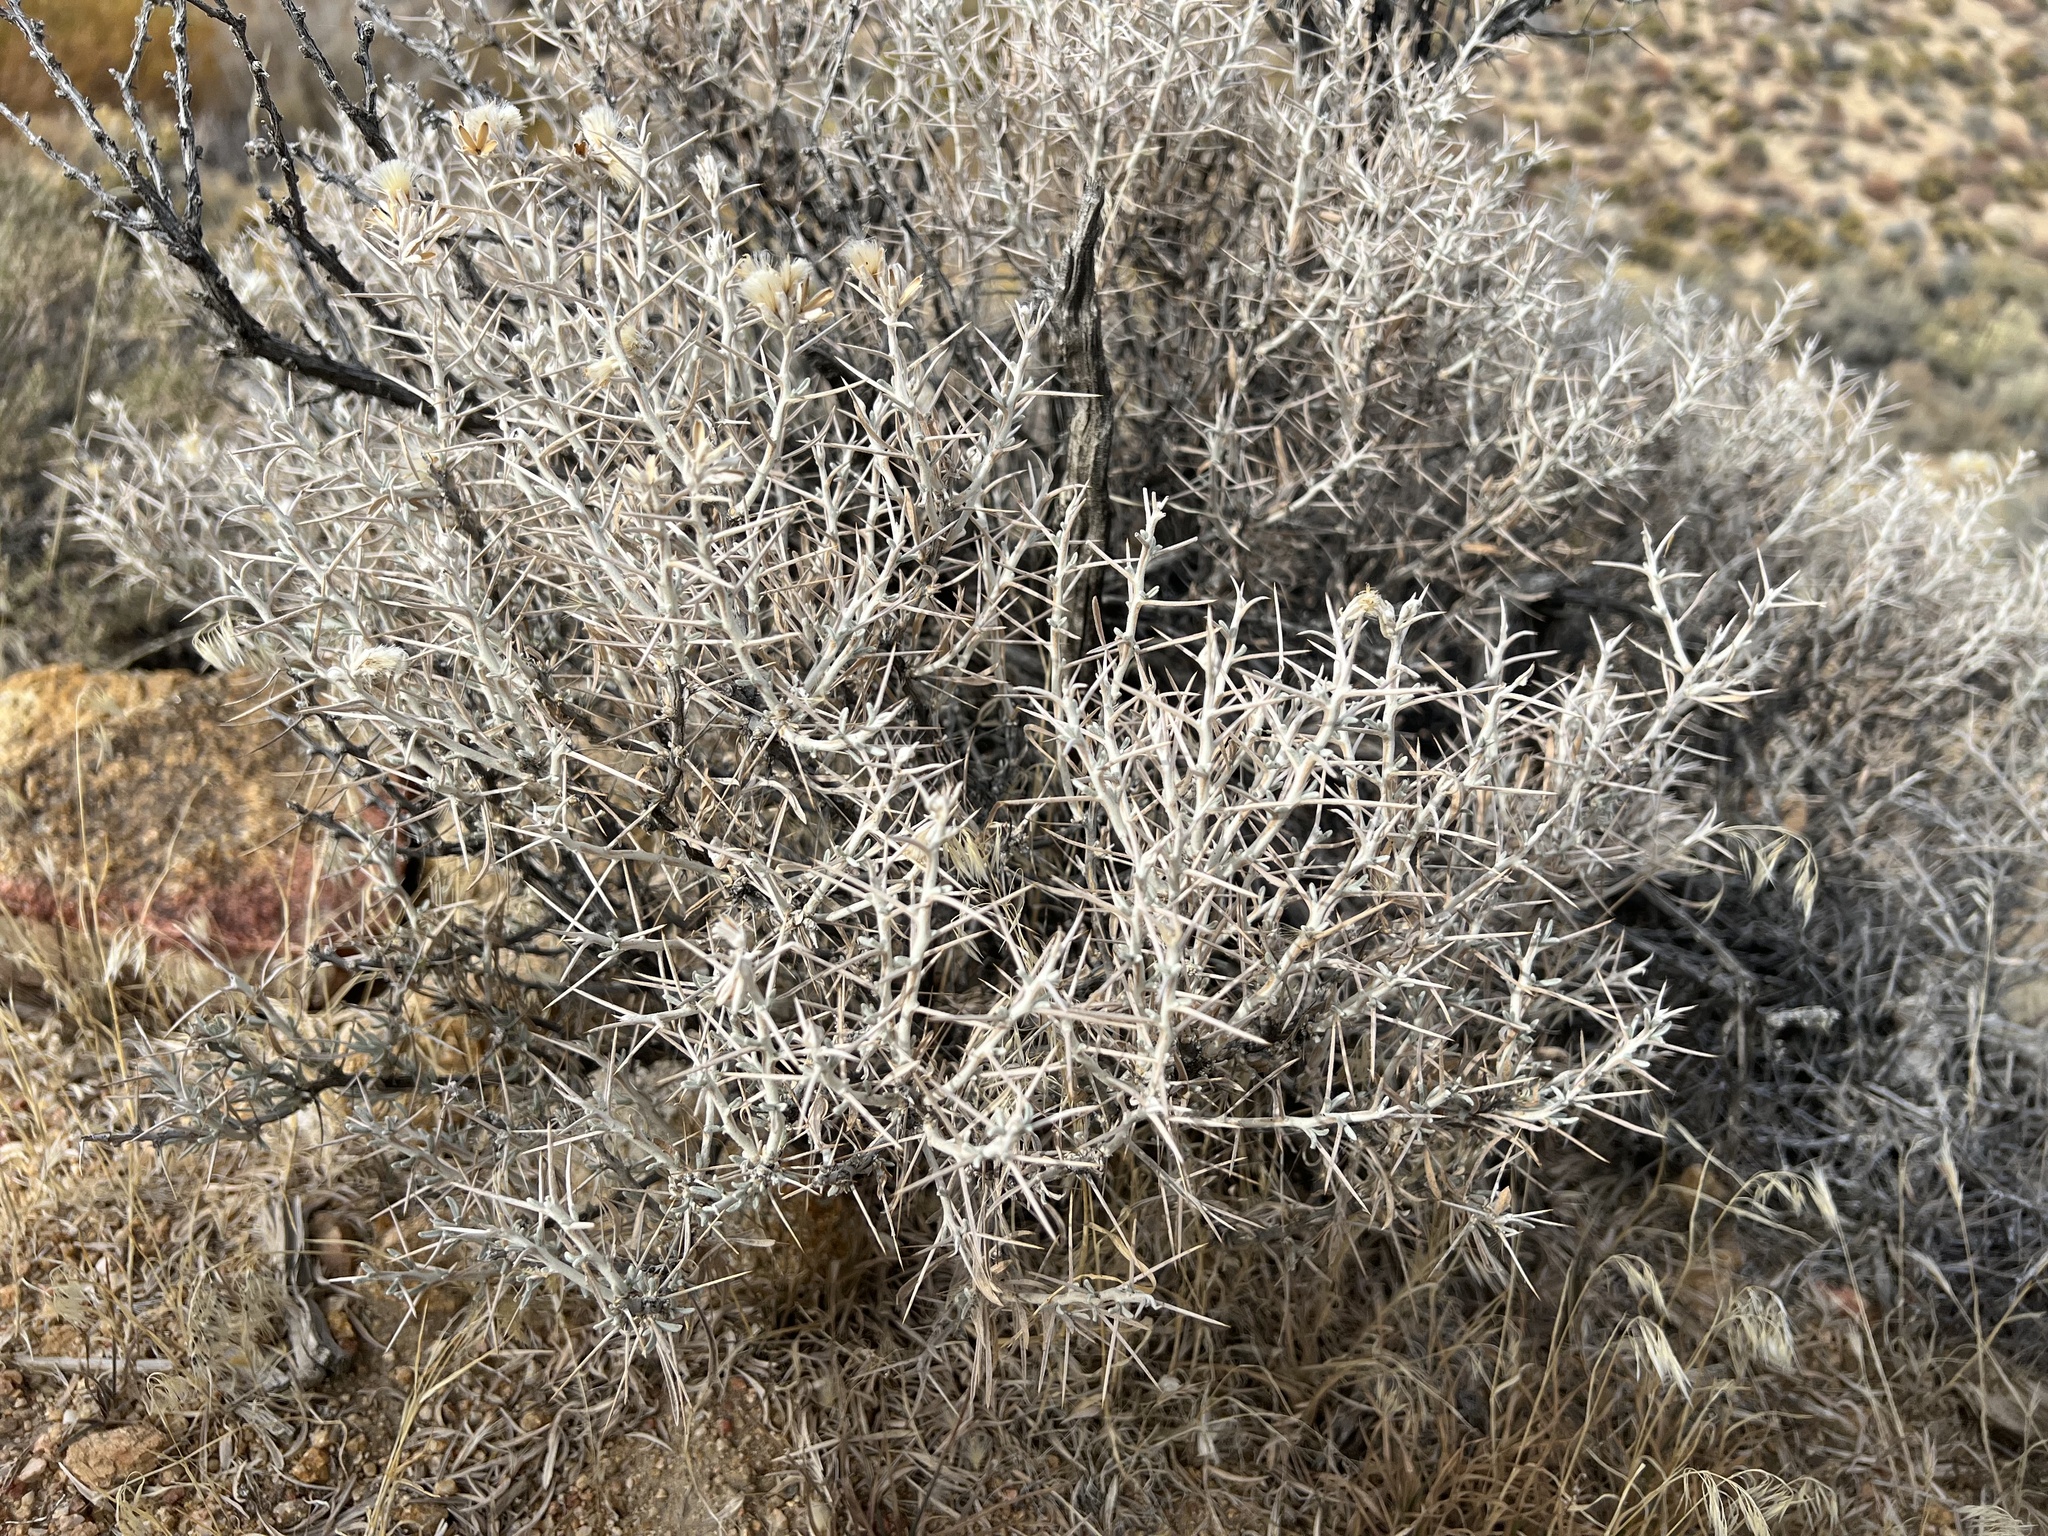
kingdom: Plantae
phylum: Tracheophyta
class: Magnoliopsida
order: Asterales
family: Asteraceae
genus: Tetradymia
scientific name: Tetradymia stenolepis
